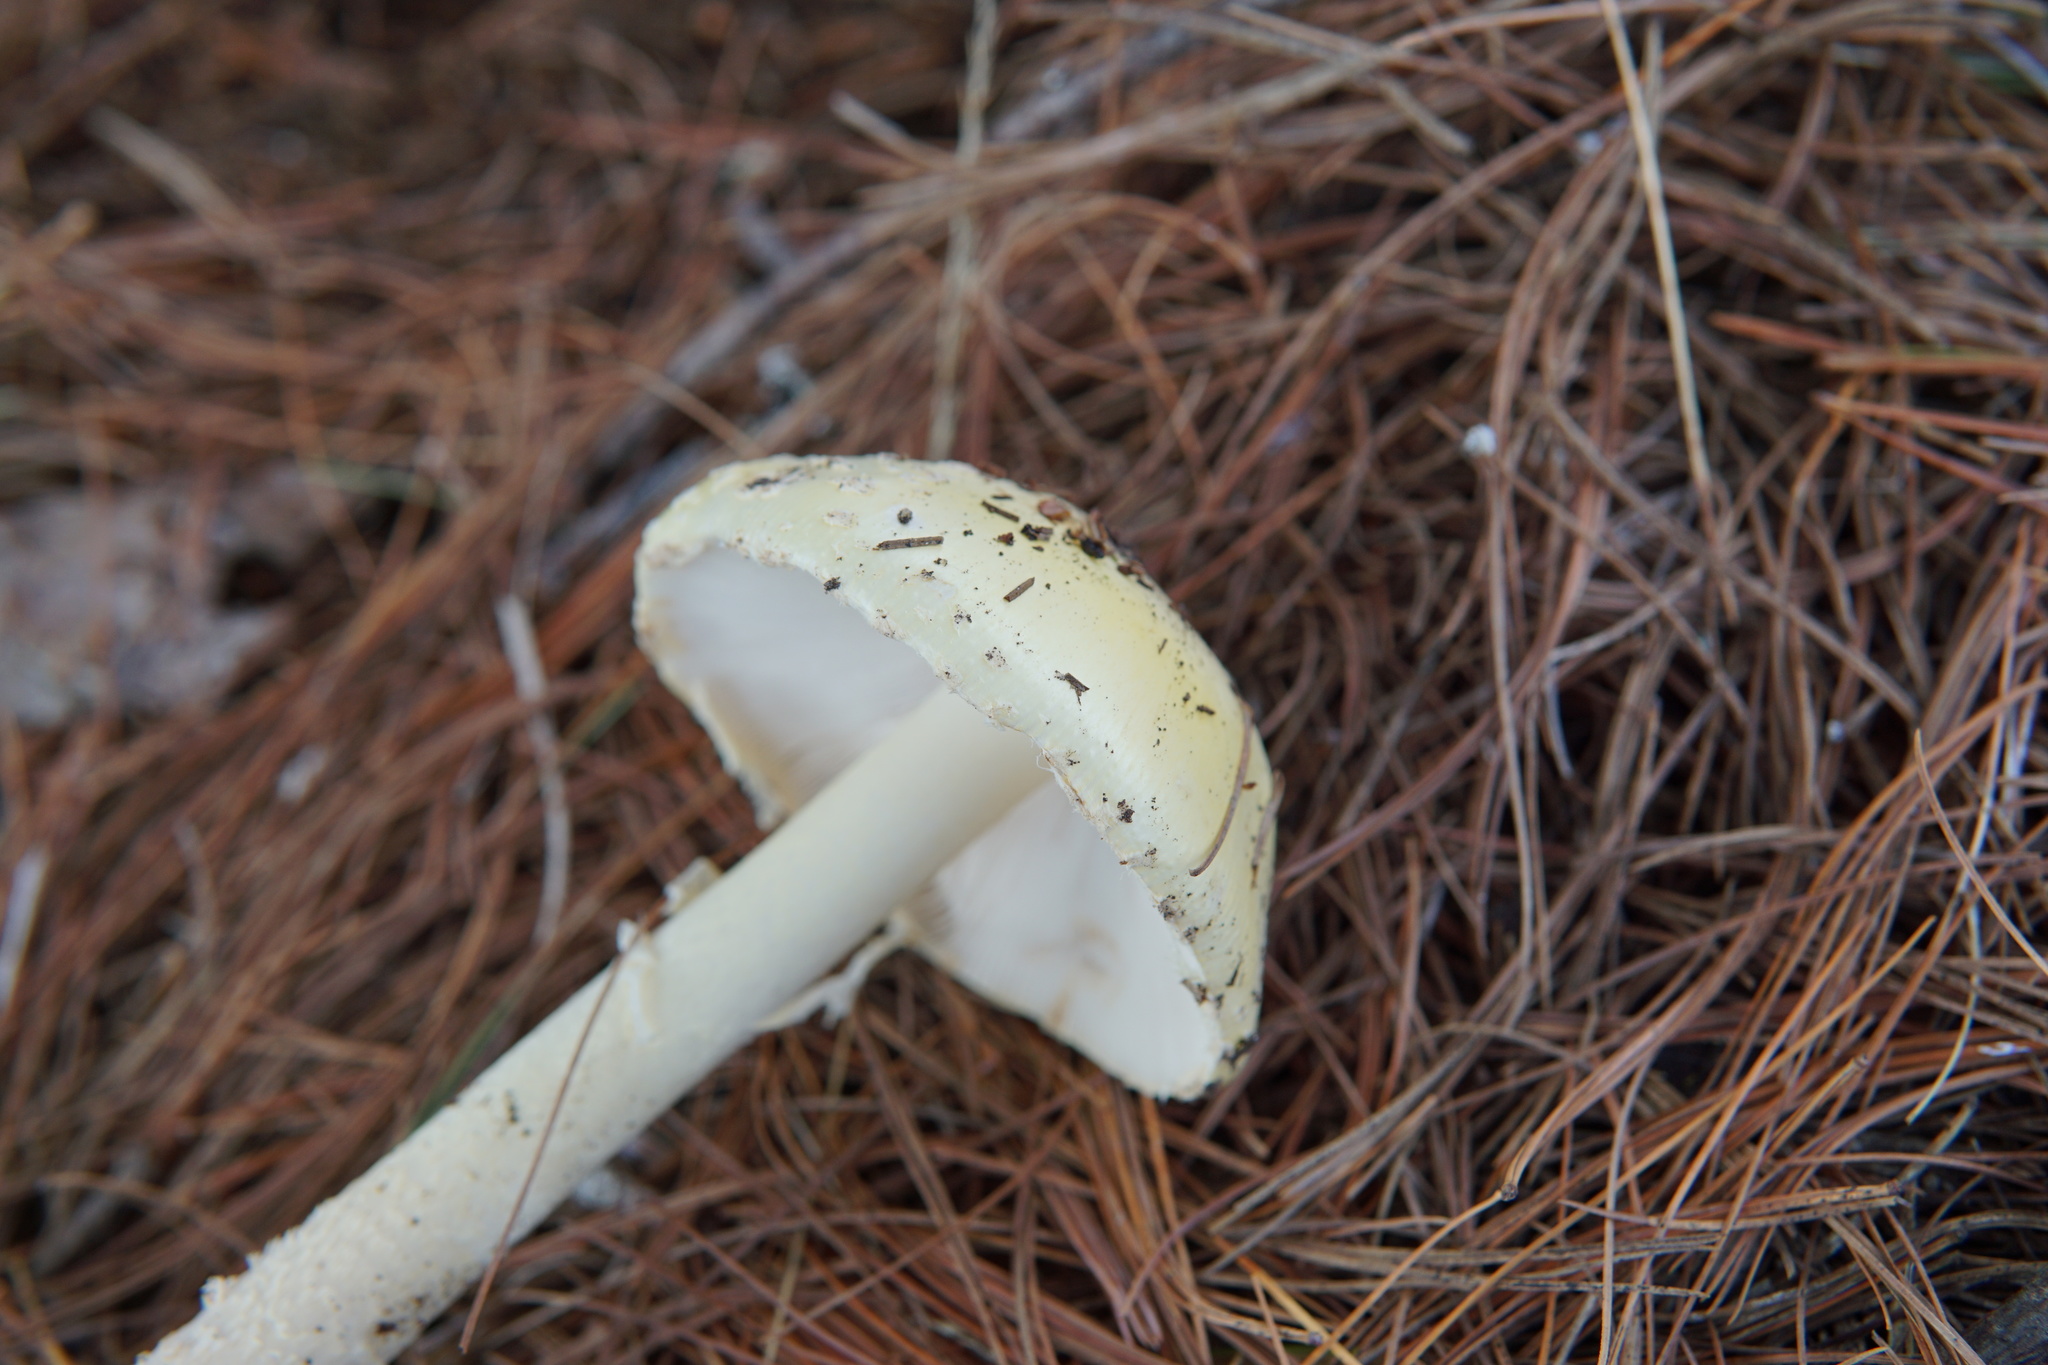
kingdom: Fungi
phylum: Basidiomycota
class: Agaricomycetes
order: Agaricales
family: Amanitaceae
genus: Amanita
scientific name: Amanita muscaria
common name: Fly agaric
